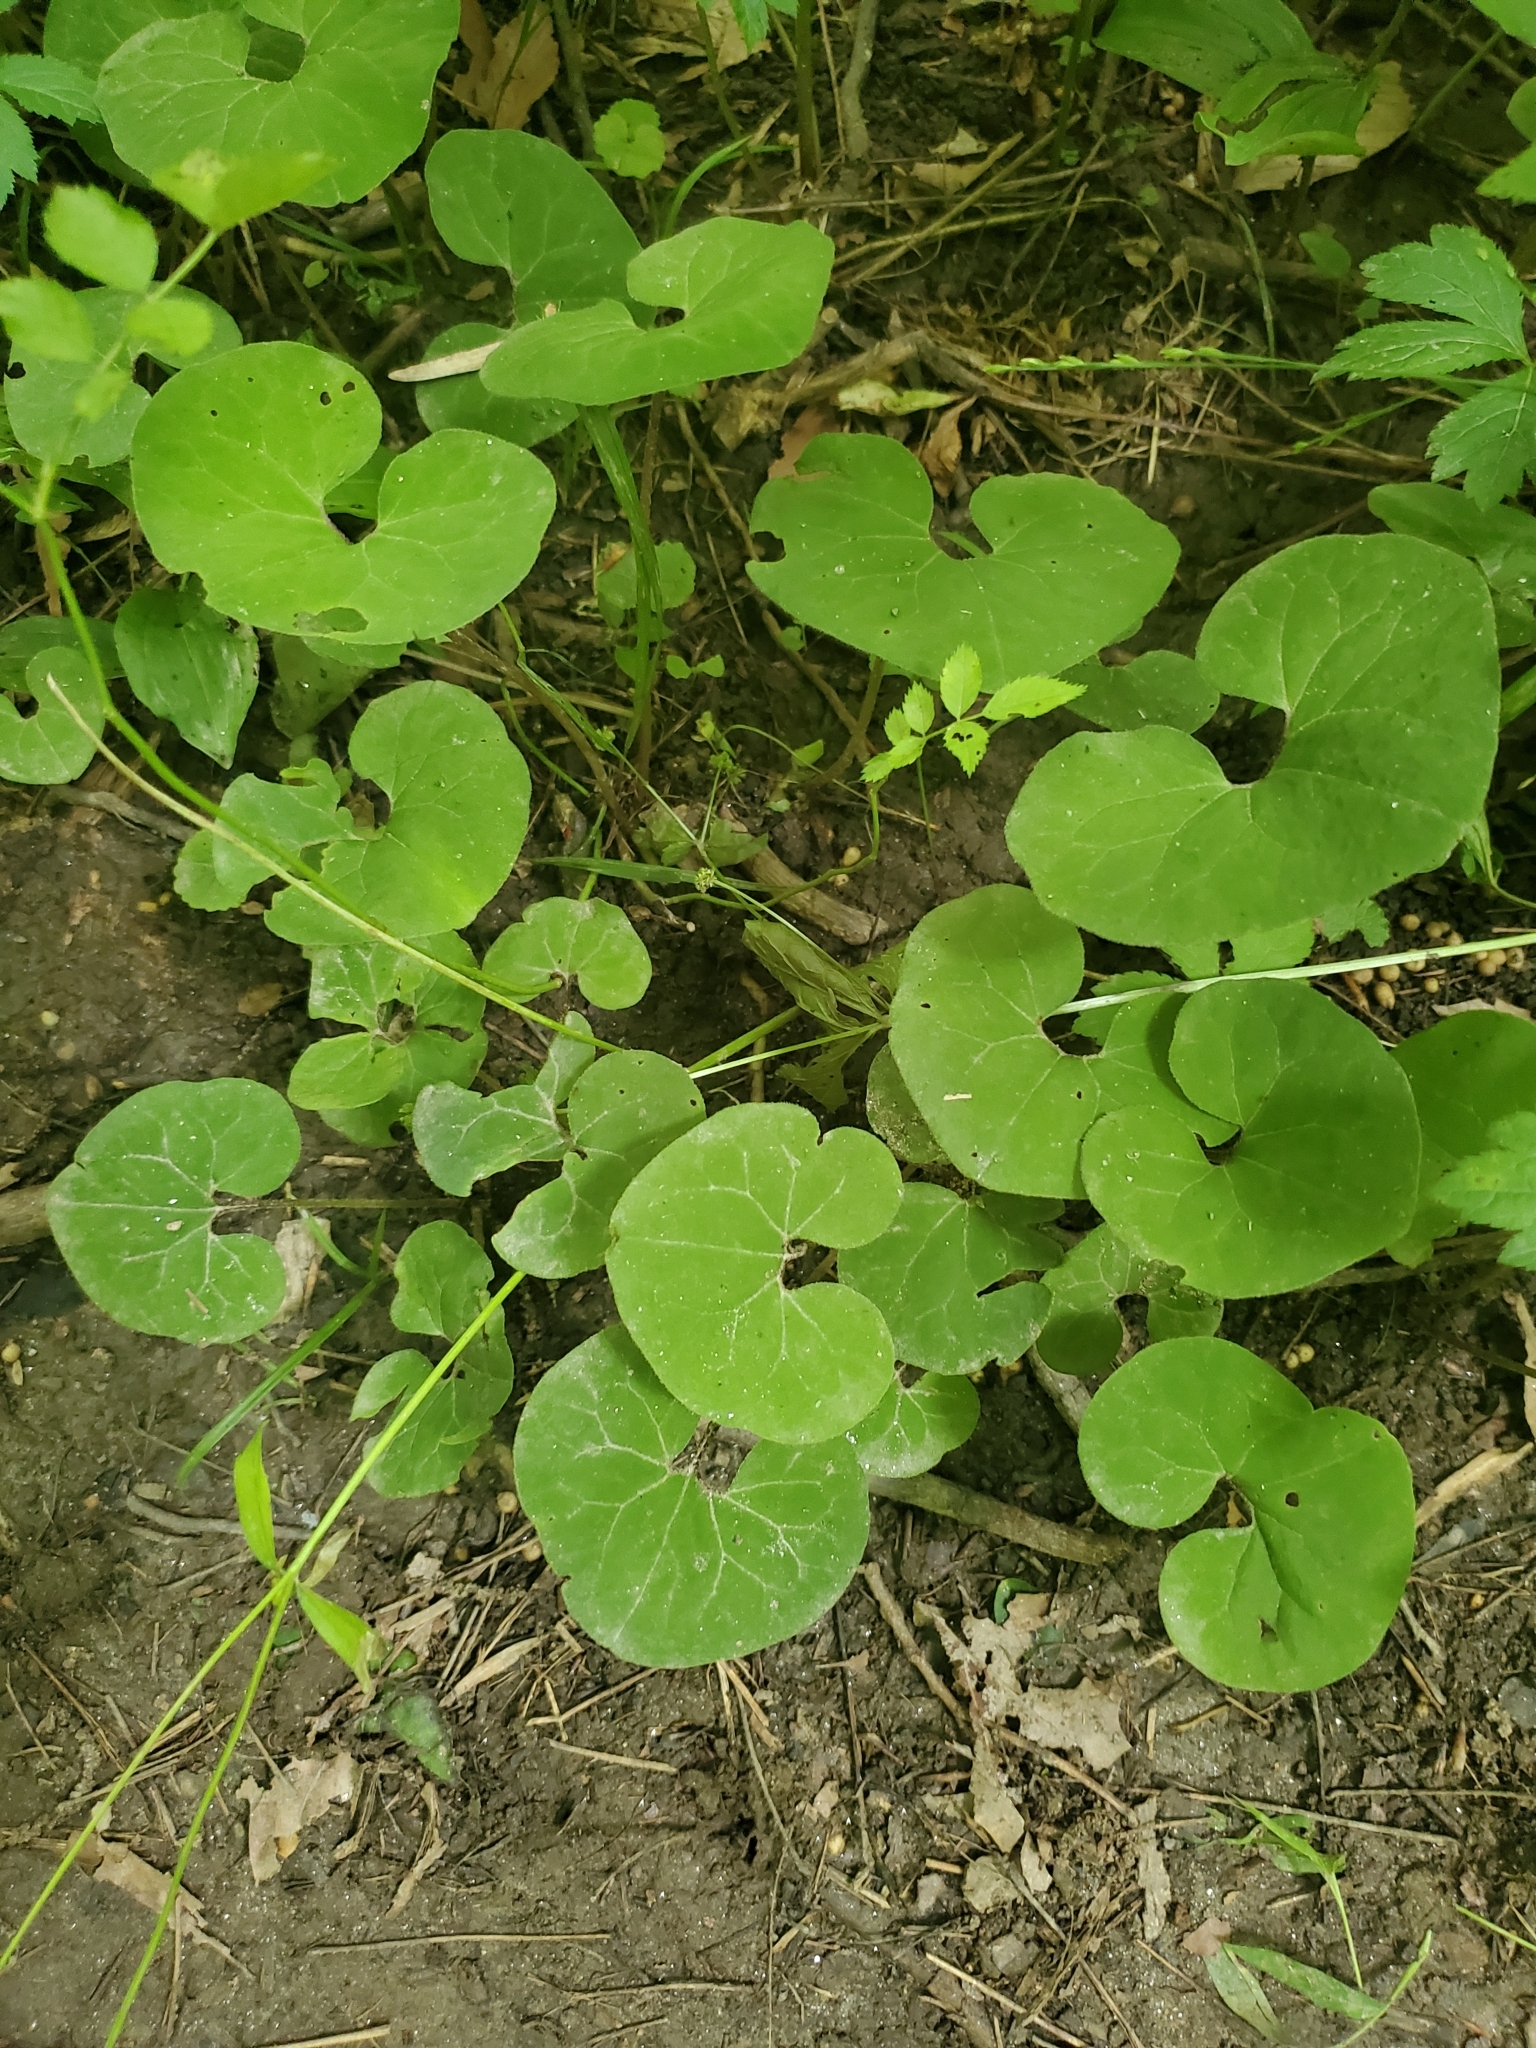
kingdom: Plantae
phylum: Tracheophyta
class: Magnoliopsida
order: Piperales
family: Aristolochiaceae
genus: Asarum
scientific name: Asarum canadense
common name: Wild ginger
